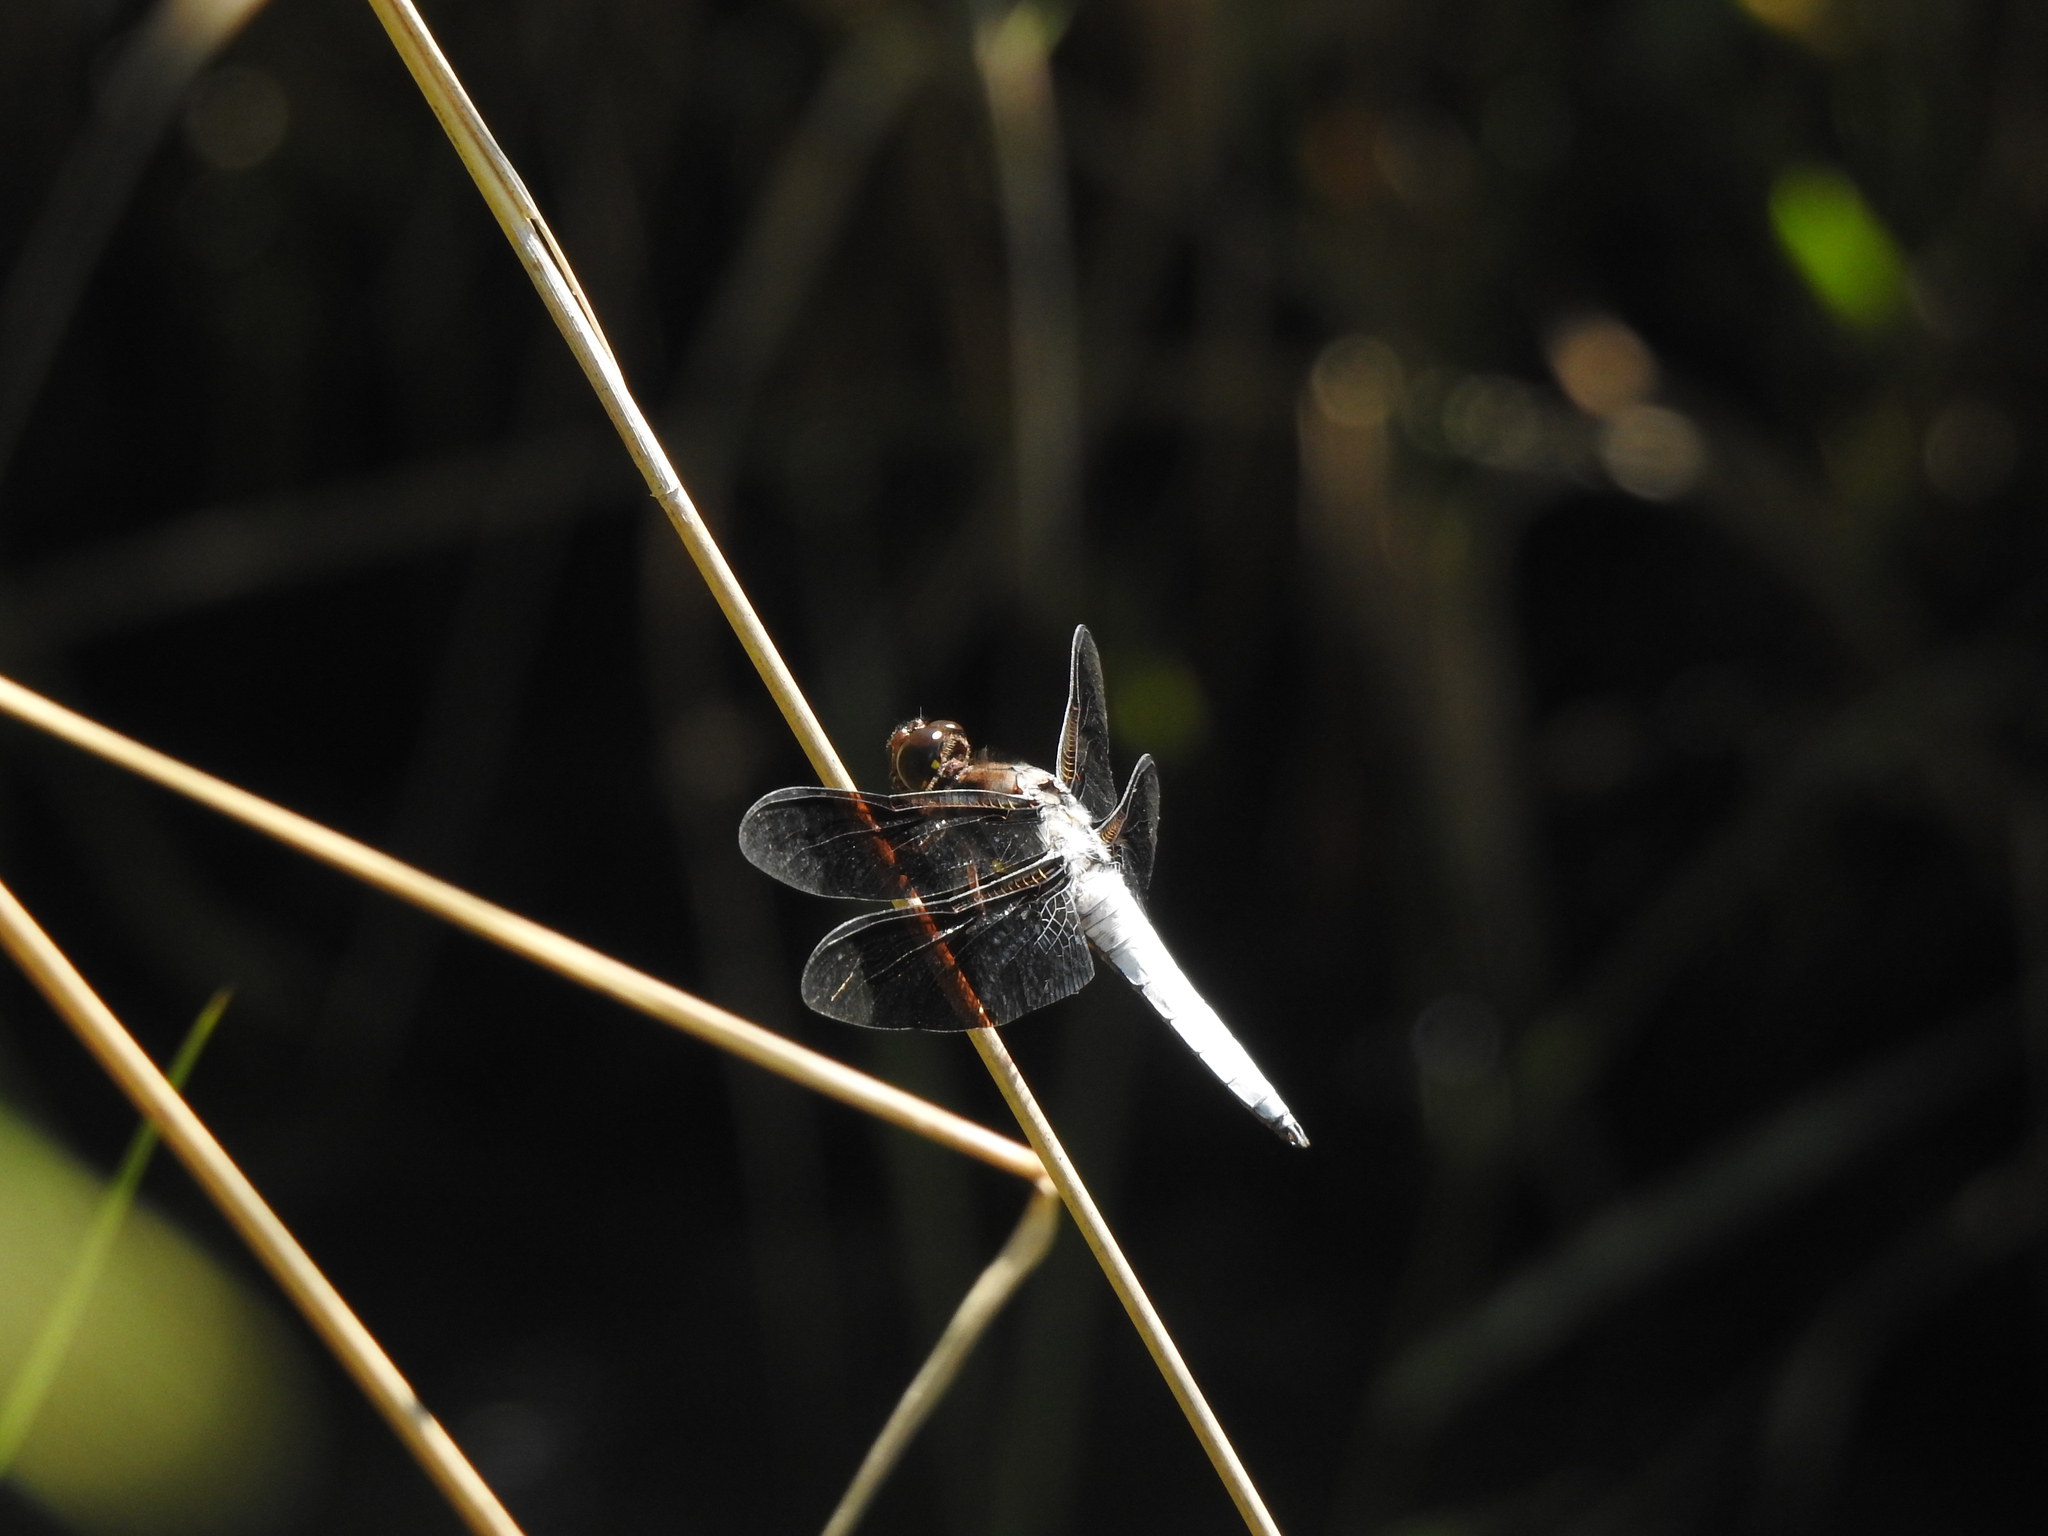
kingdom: Animalia
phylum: Arthropoda
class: Insecta
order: Odonata
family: Libellulidae
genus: Plathemis
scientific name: Plathemis lydia
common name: Common whitetail
